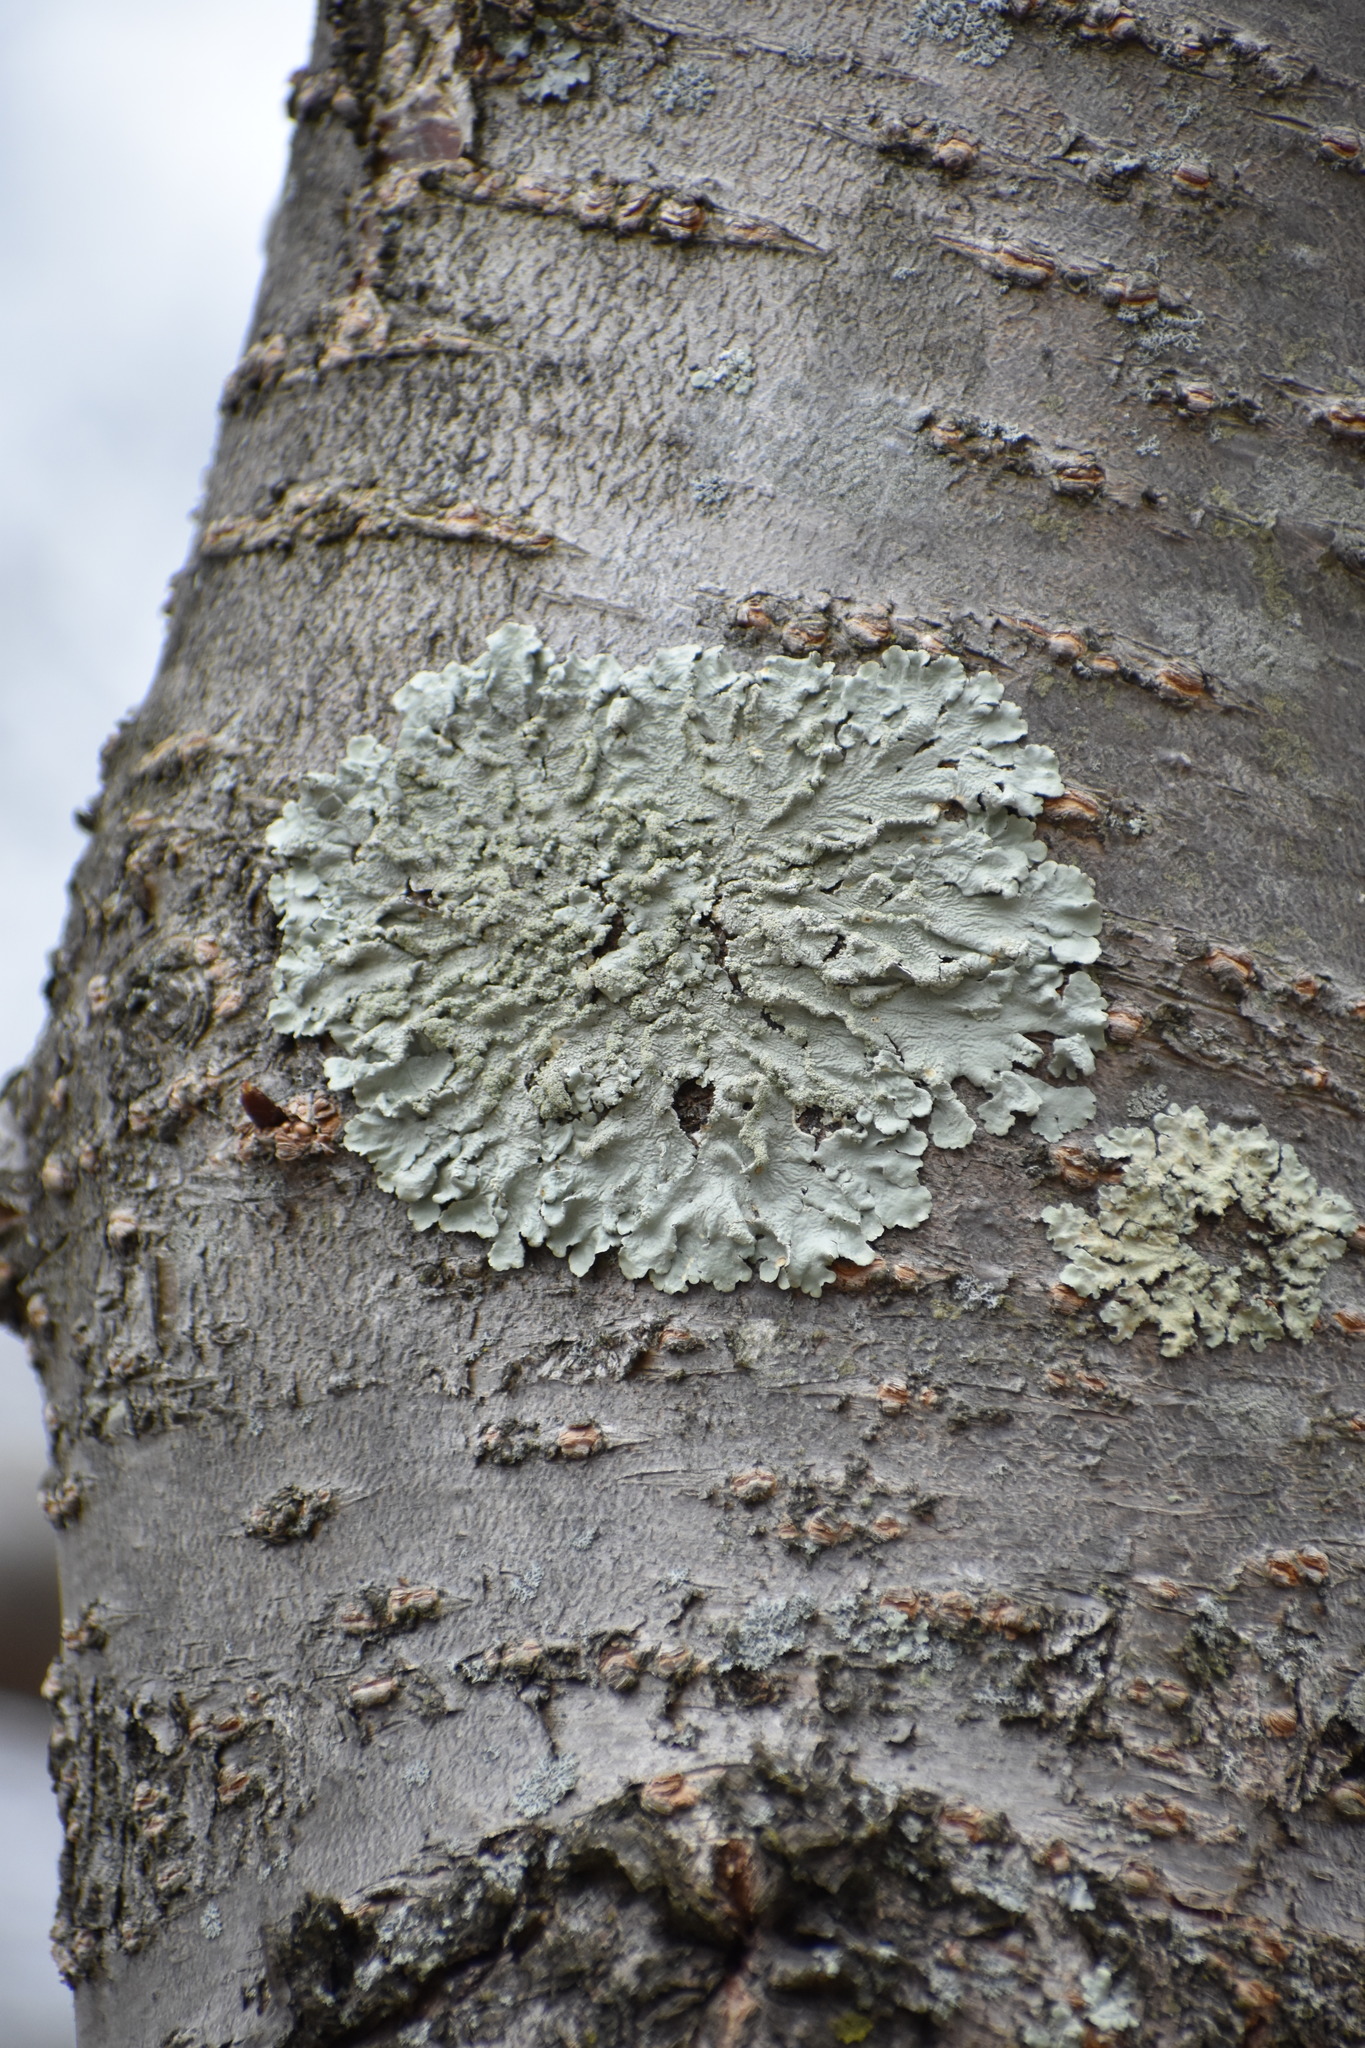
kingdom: Fungi
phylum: Ascomycota
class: Lecanoromycetes
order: Lecanorales
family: Parmeliaceae
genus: Flavoparmelia
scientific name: Flavoparmelia caperata
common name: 40-mile per hour lichen
